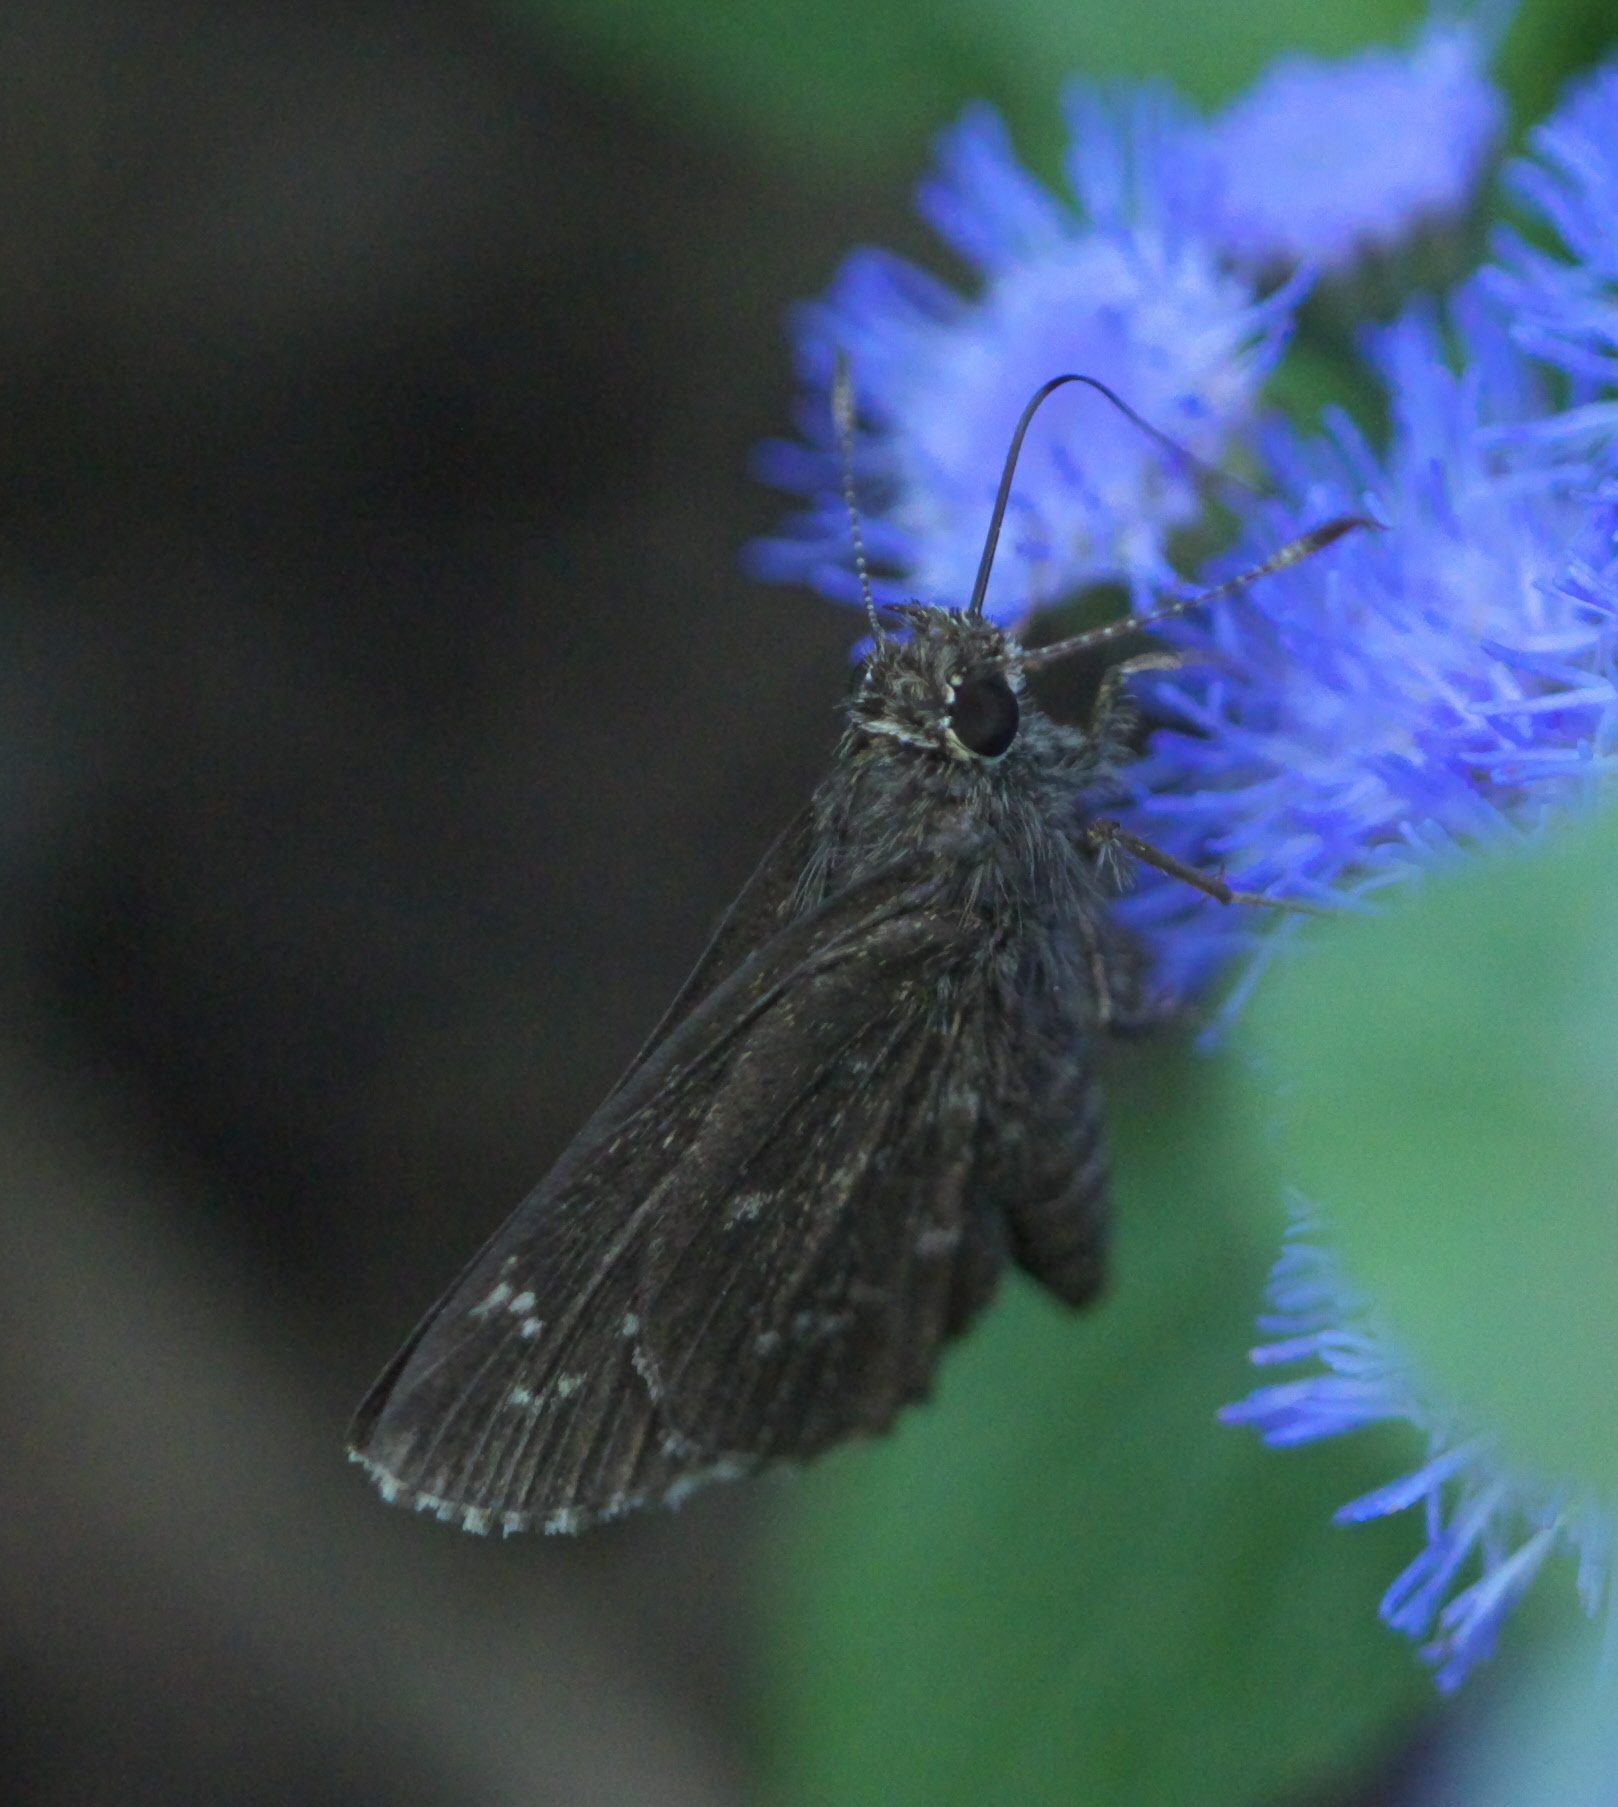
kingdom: Animalia
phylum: Arthropoda
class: Insecta
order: Lepidoptera
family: Hesperiidae
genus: Mastor
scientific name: Mastor celia
